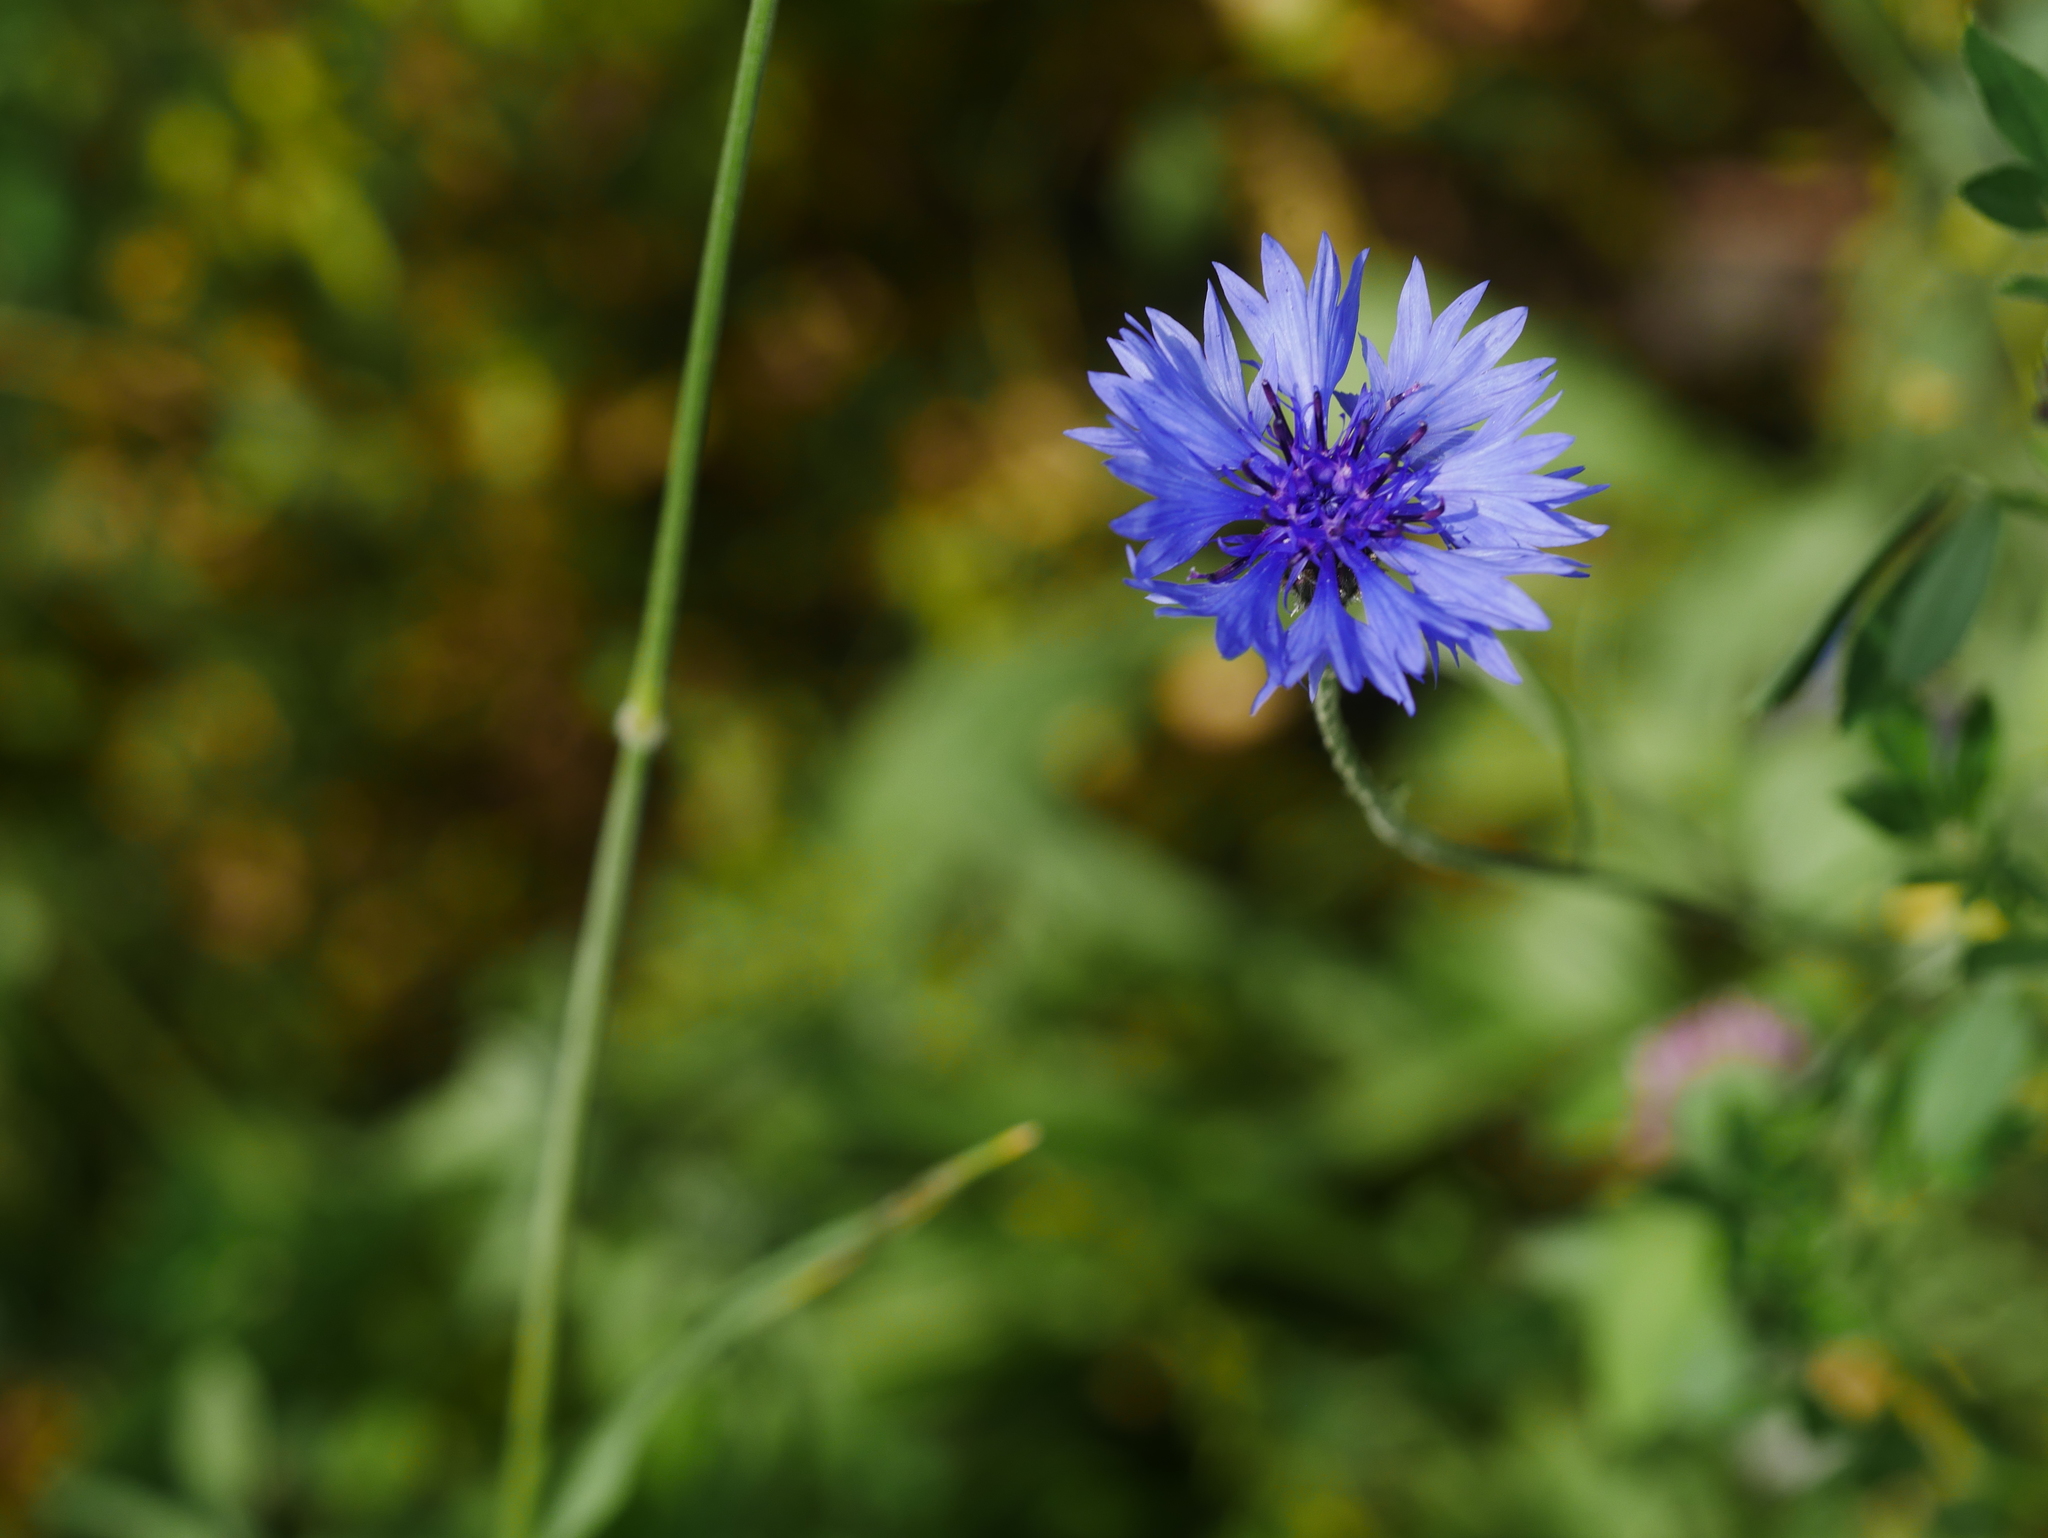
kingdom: Plantae
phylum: Tracheophyta
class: Magnoliopsida
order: Asterales
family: Asteraceae
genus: Centaurea
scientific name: Centaurea cyanus
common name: Cornflower
